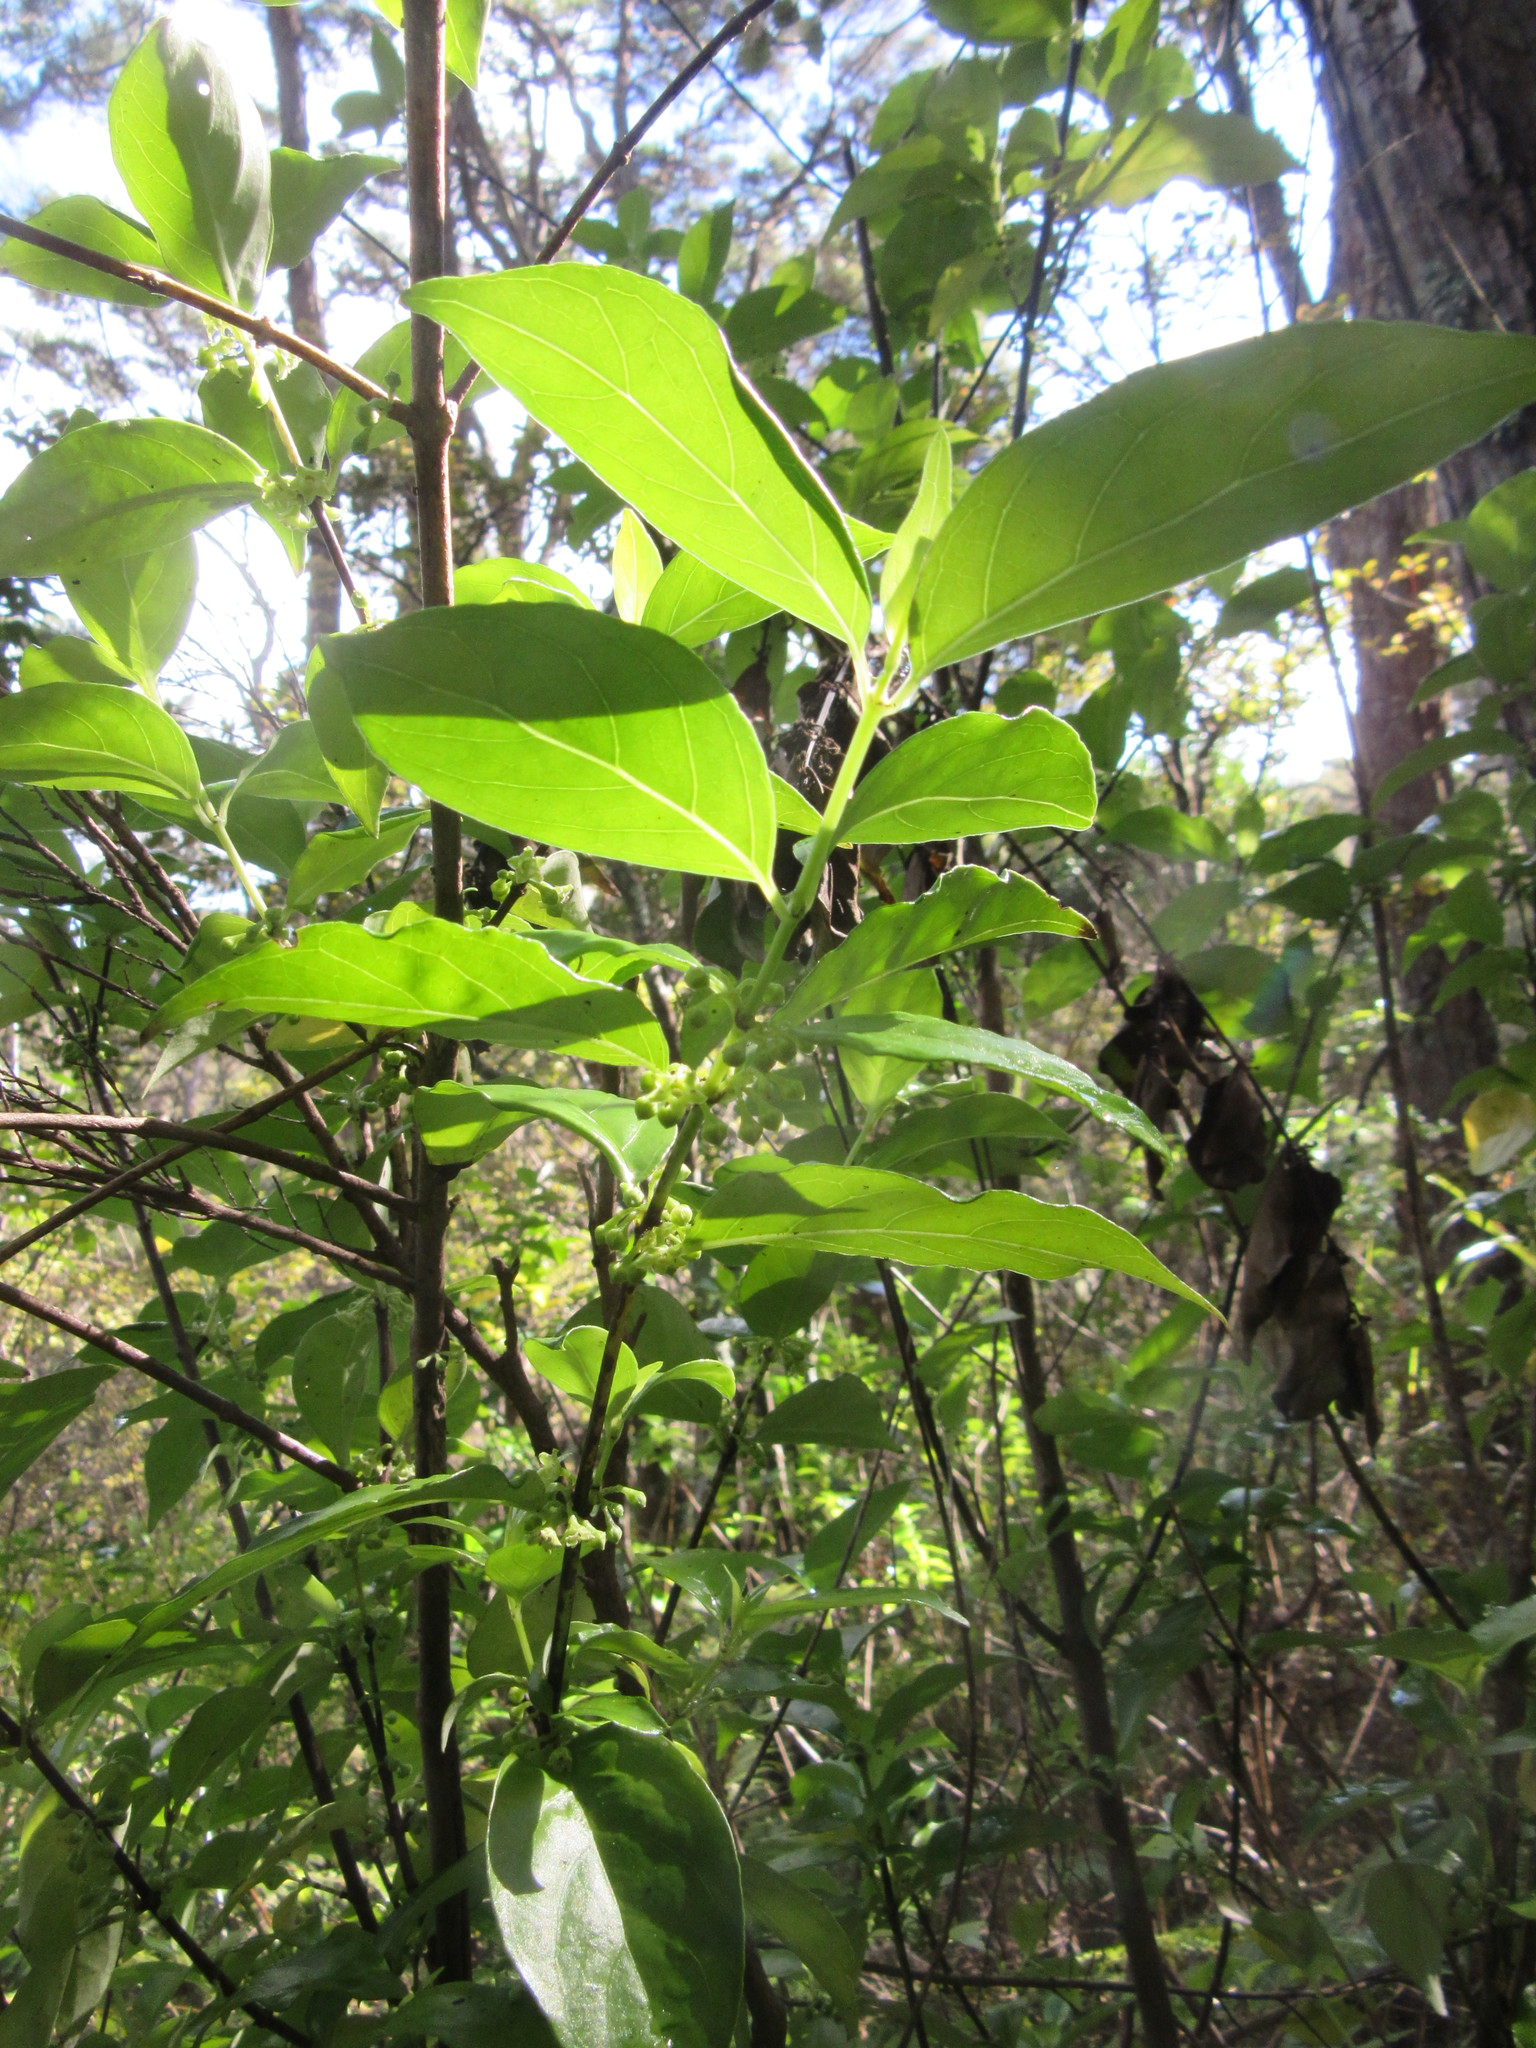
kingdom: Plantae
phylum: Tracheophyta
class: Magnoliopsida
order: Gentianales
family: Loganiaceae
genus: Geniostoma
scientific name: Geniostoma ligustrifolium
